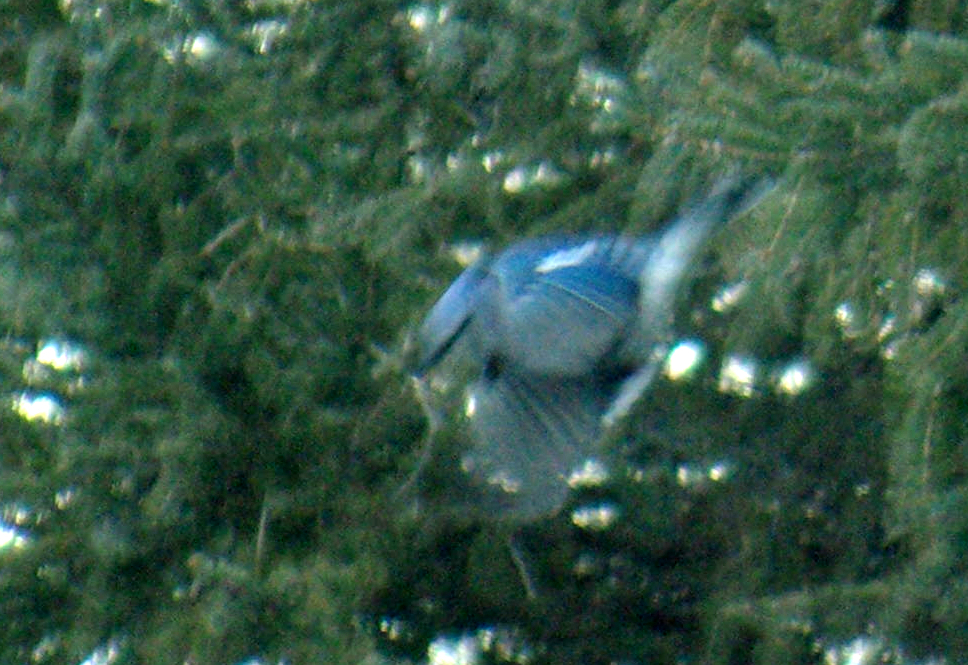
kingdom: Animalia
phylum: Chordata
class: Aves
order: Passeriformes
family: Corvidae
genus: Cyanocitta
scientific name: Cyanocitta cristata
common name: Blue jay
